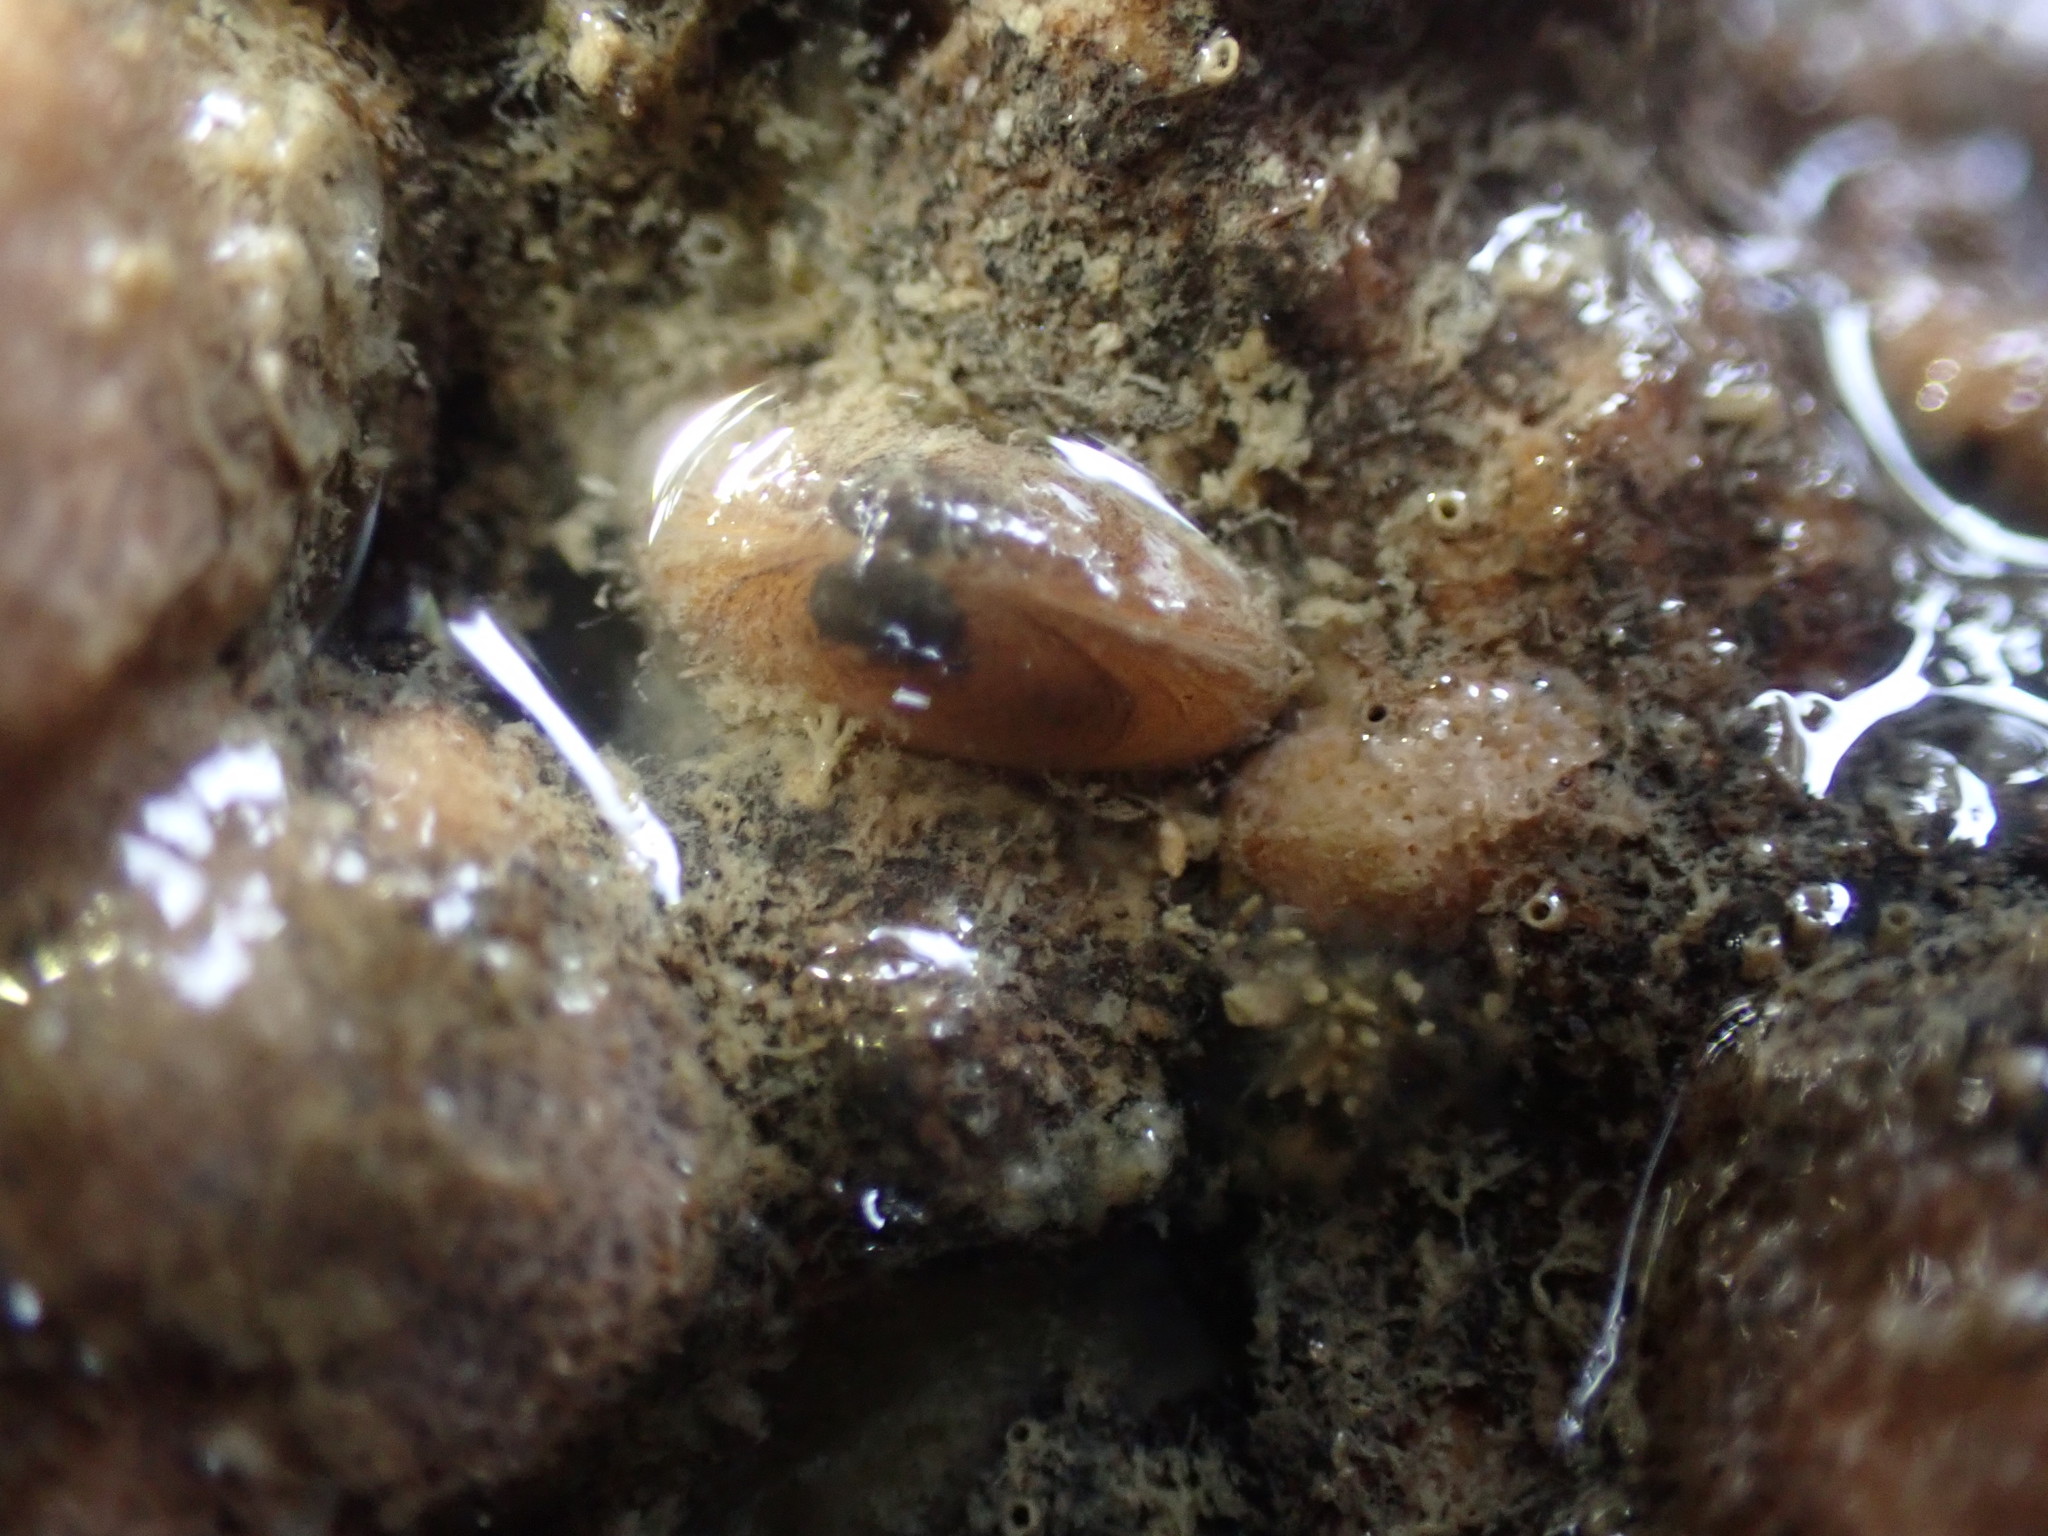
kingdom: Animalia
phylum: Mollusca
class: Bivalvia
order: Galeommatida
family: Lasaeidae
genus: Borniola
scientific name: Borniola reniformis
